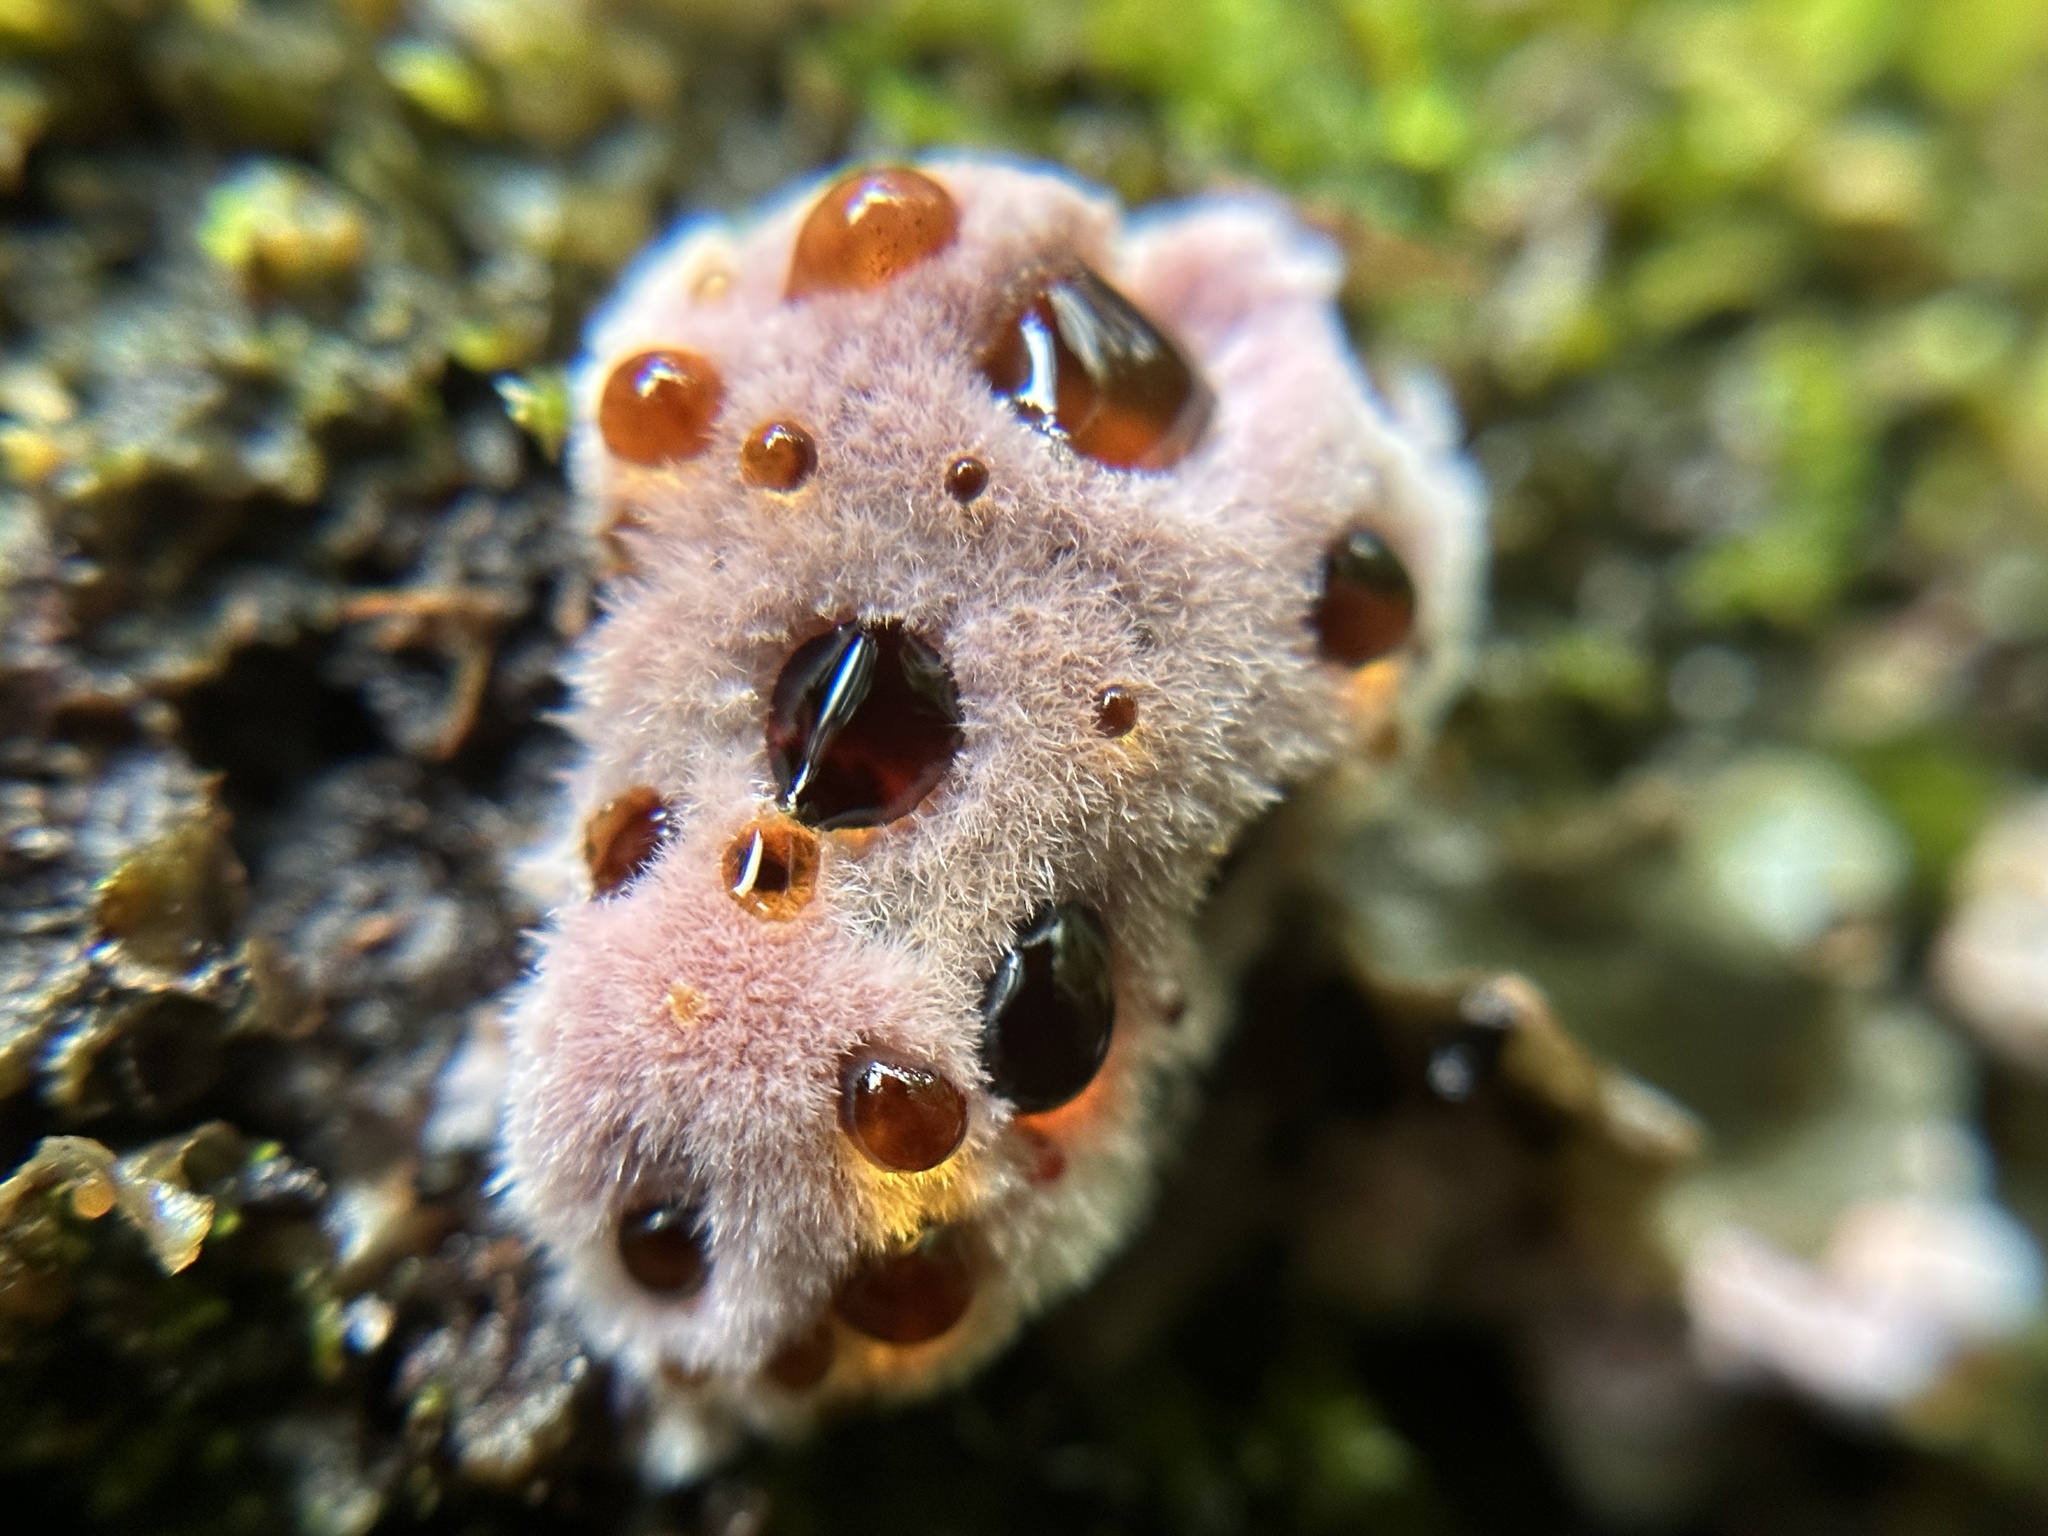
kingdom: Fungi
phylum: Basidiomycota
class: Agaricomycetes
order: Corticiales
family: Punctulariaceae
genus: Punctularia
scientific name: Punctularia atropurpurascens
